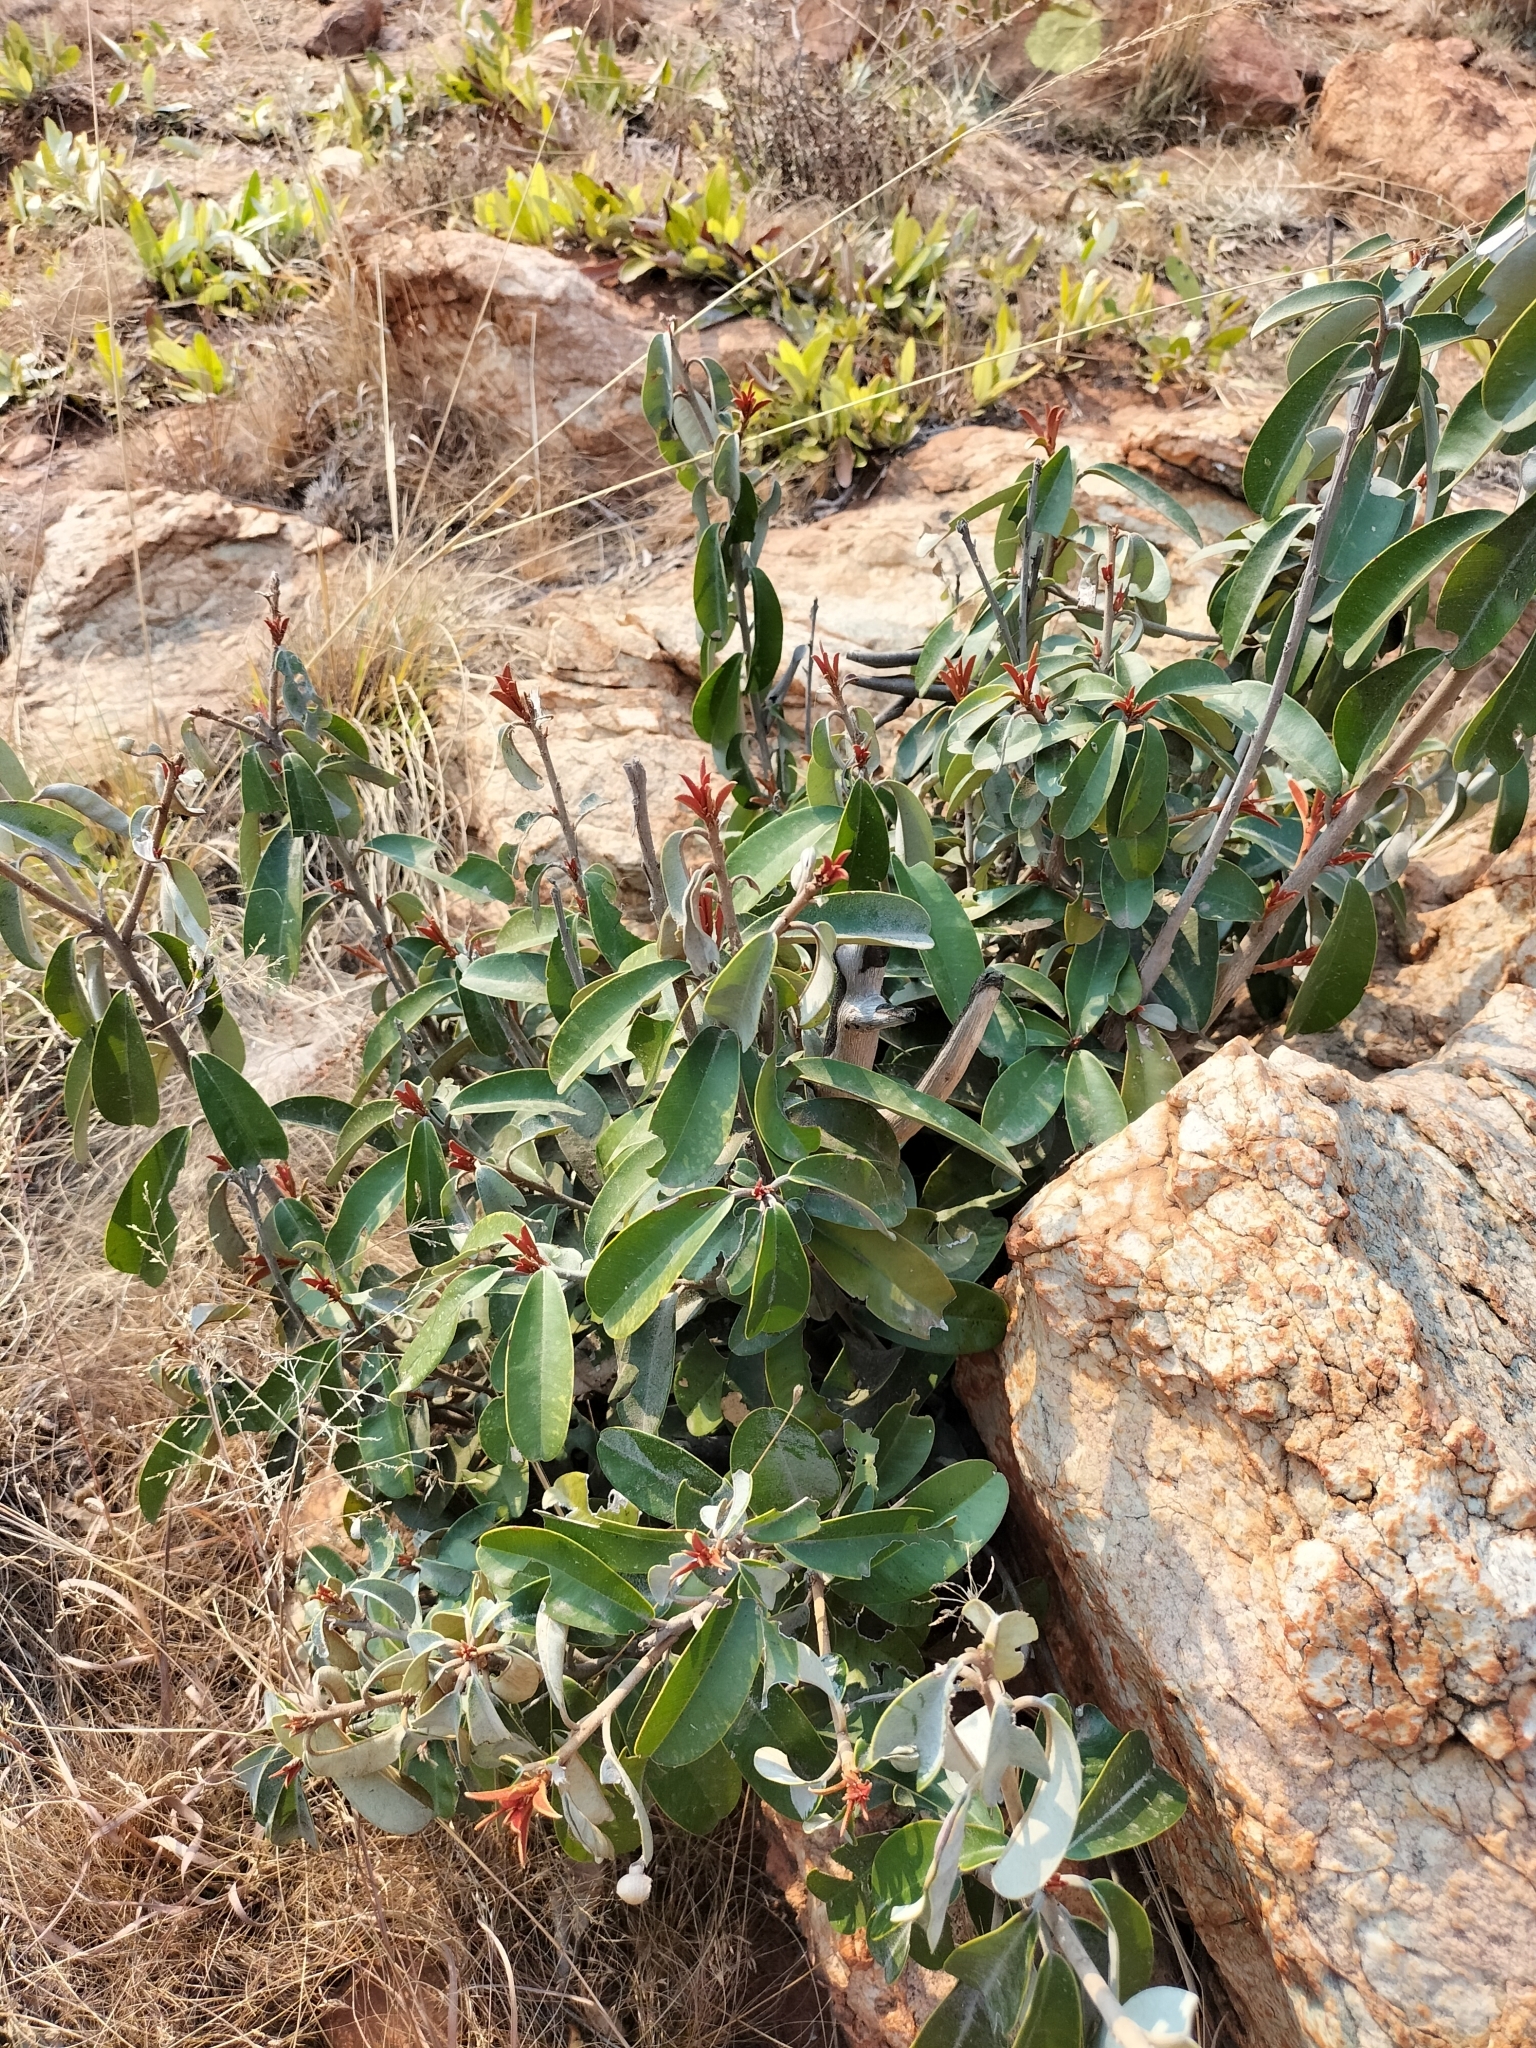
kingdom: Plantae
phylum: Tracheophyta
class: Magnoliopsida
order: Ericales
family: Sapotaceae
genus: Englerophytum
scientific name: Englerophytum magalismontanum
